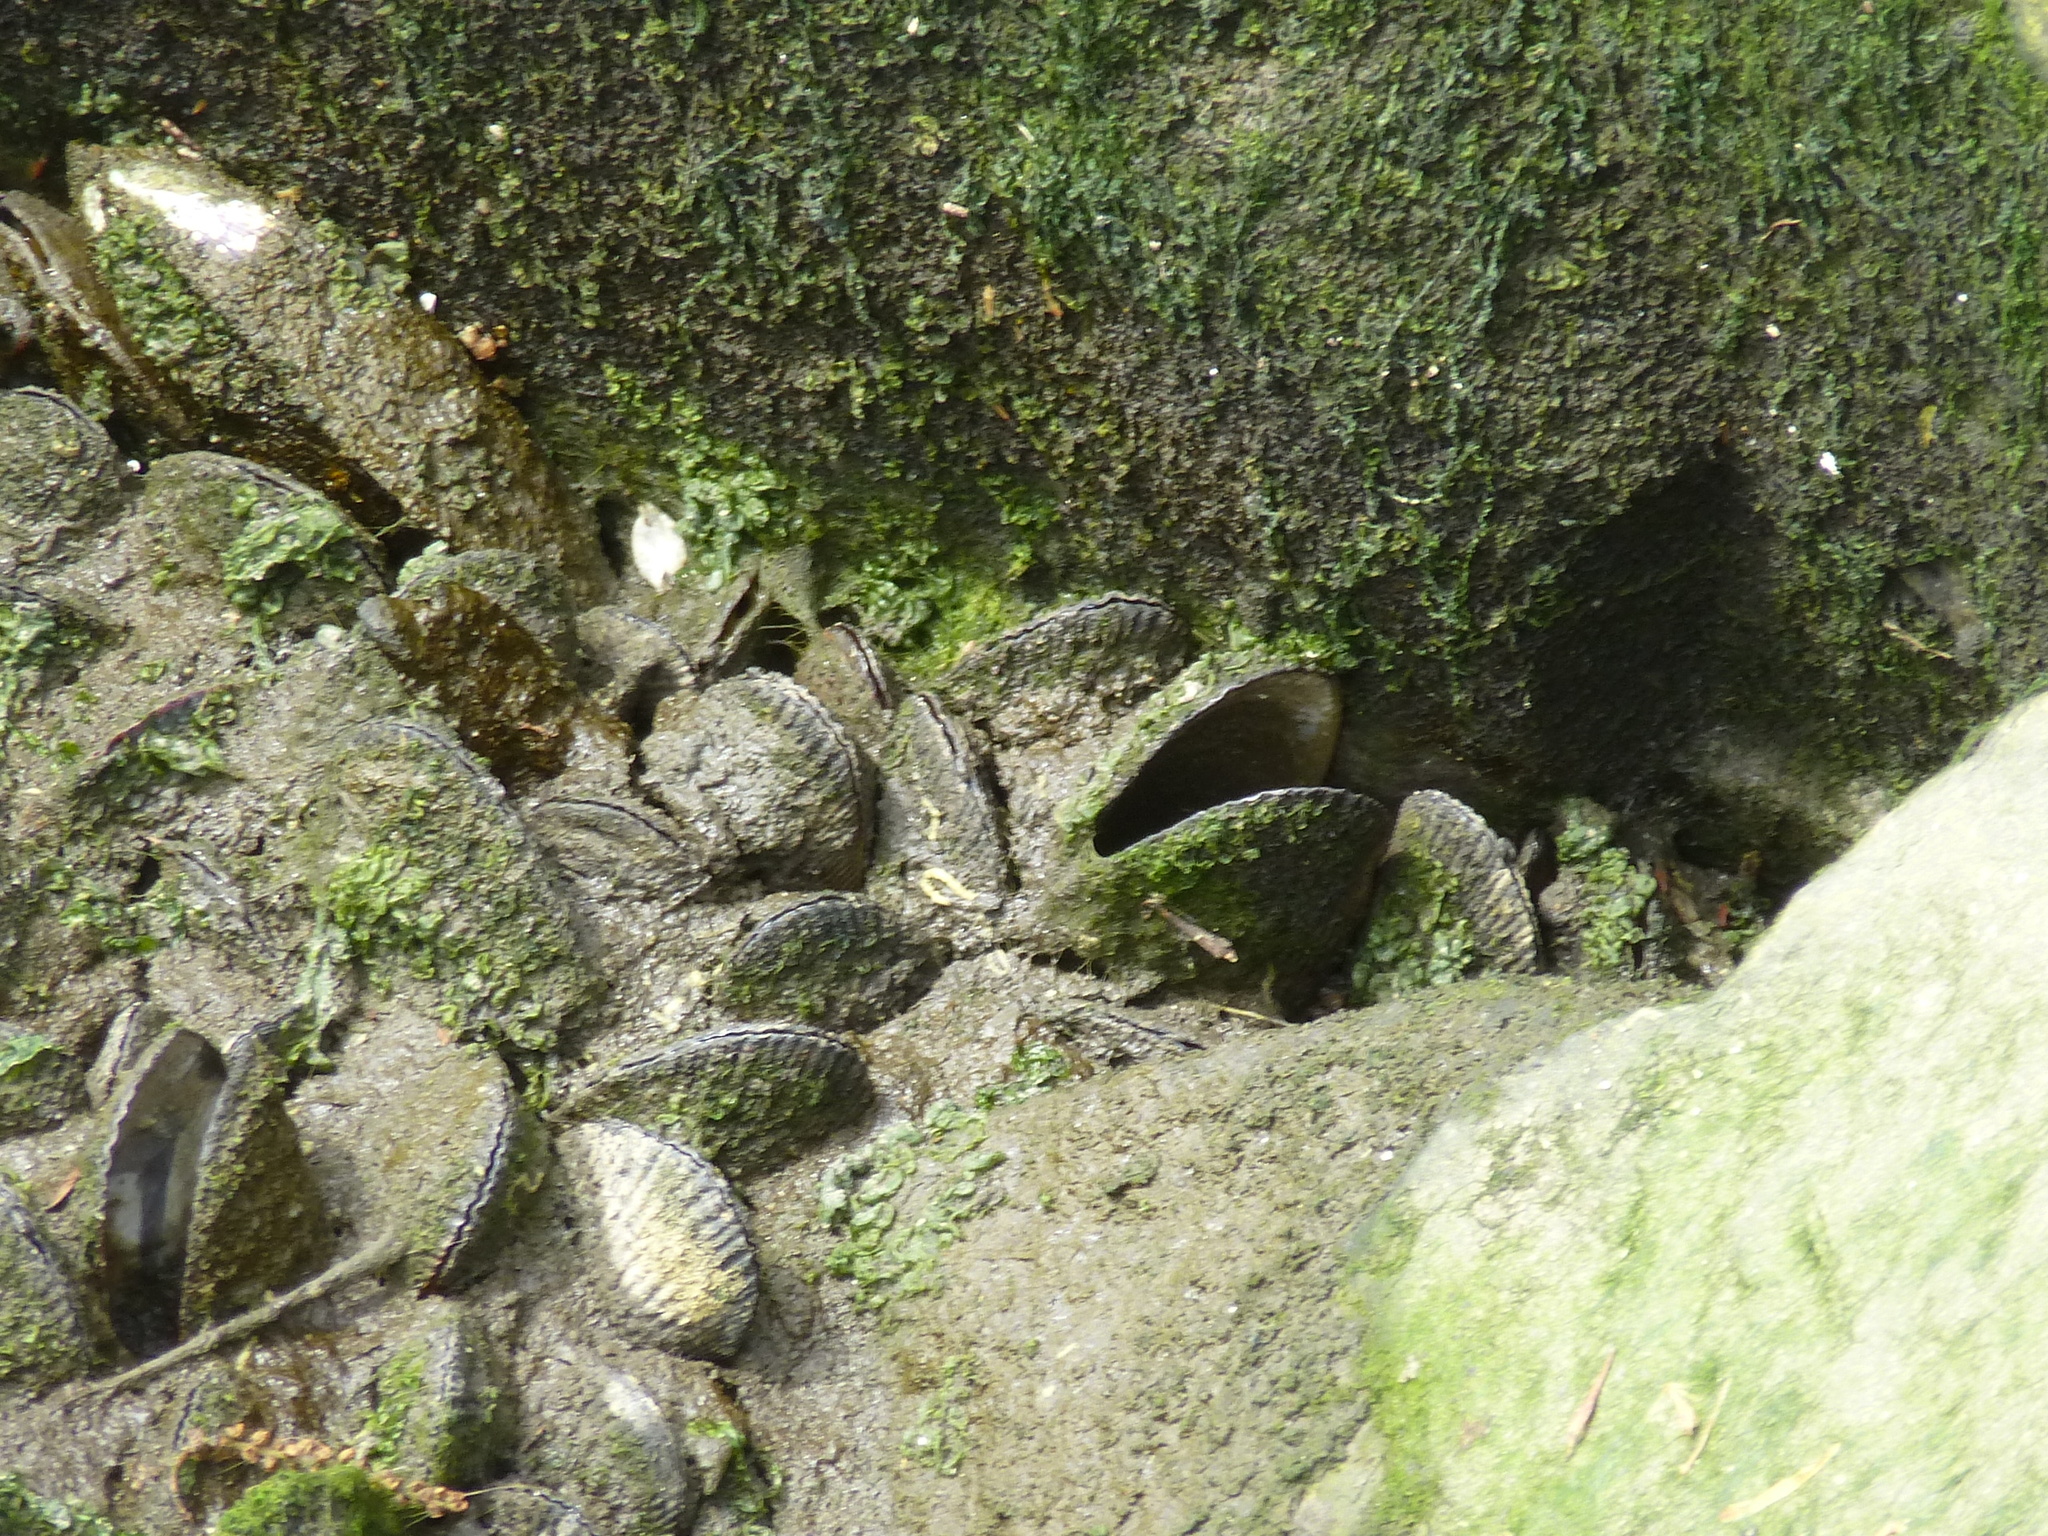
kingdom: Animalia
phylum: Mollusca
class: Bivalvia
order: Mytilida
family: Mytilidae
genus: Geukensia
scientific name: Geukensia demissa
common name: Ribbed mussel
